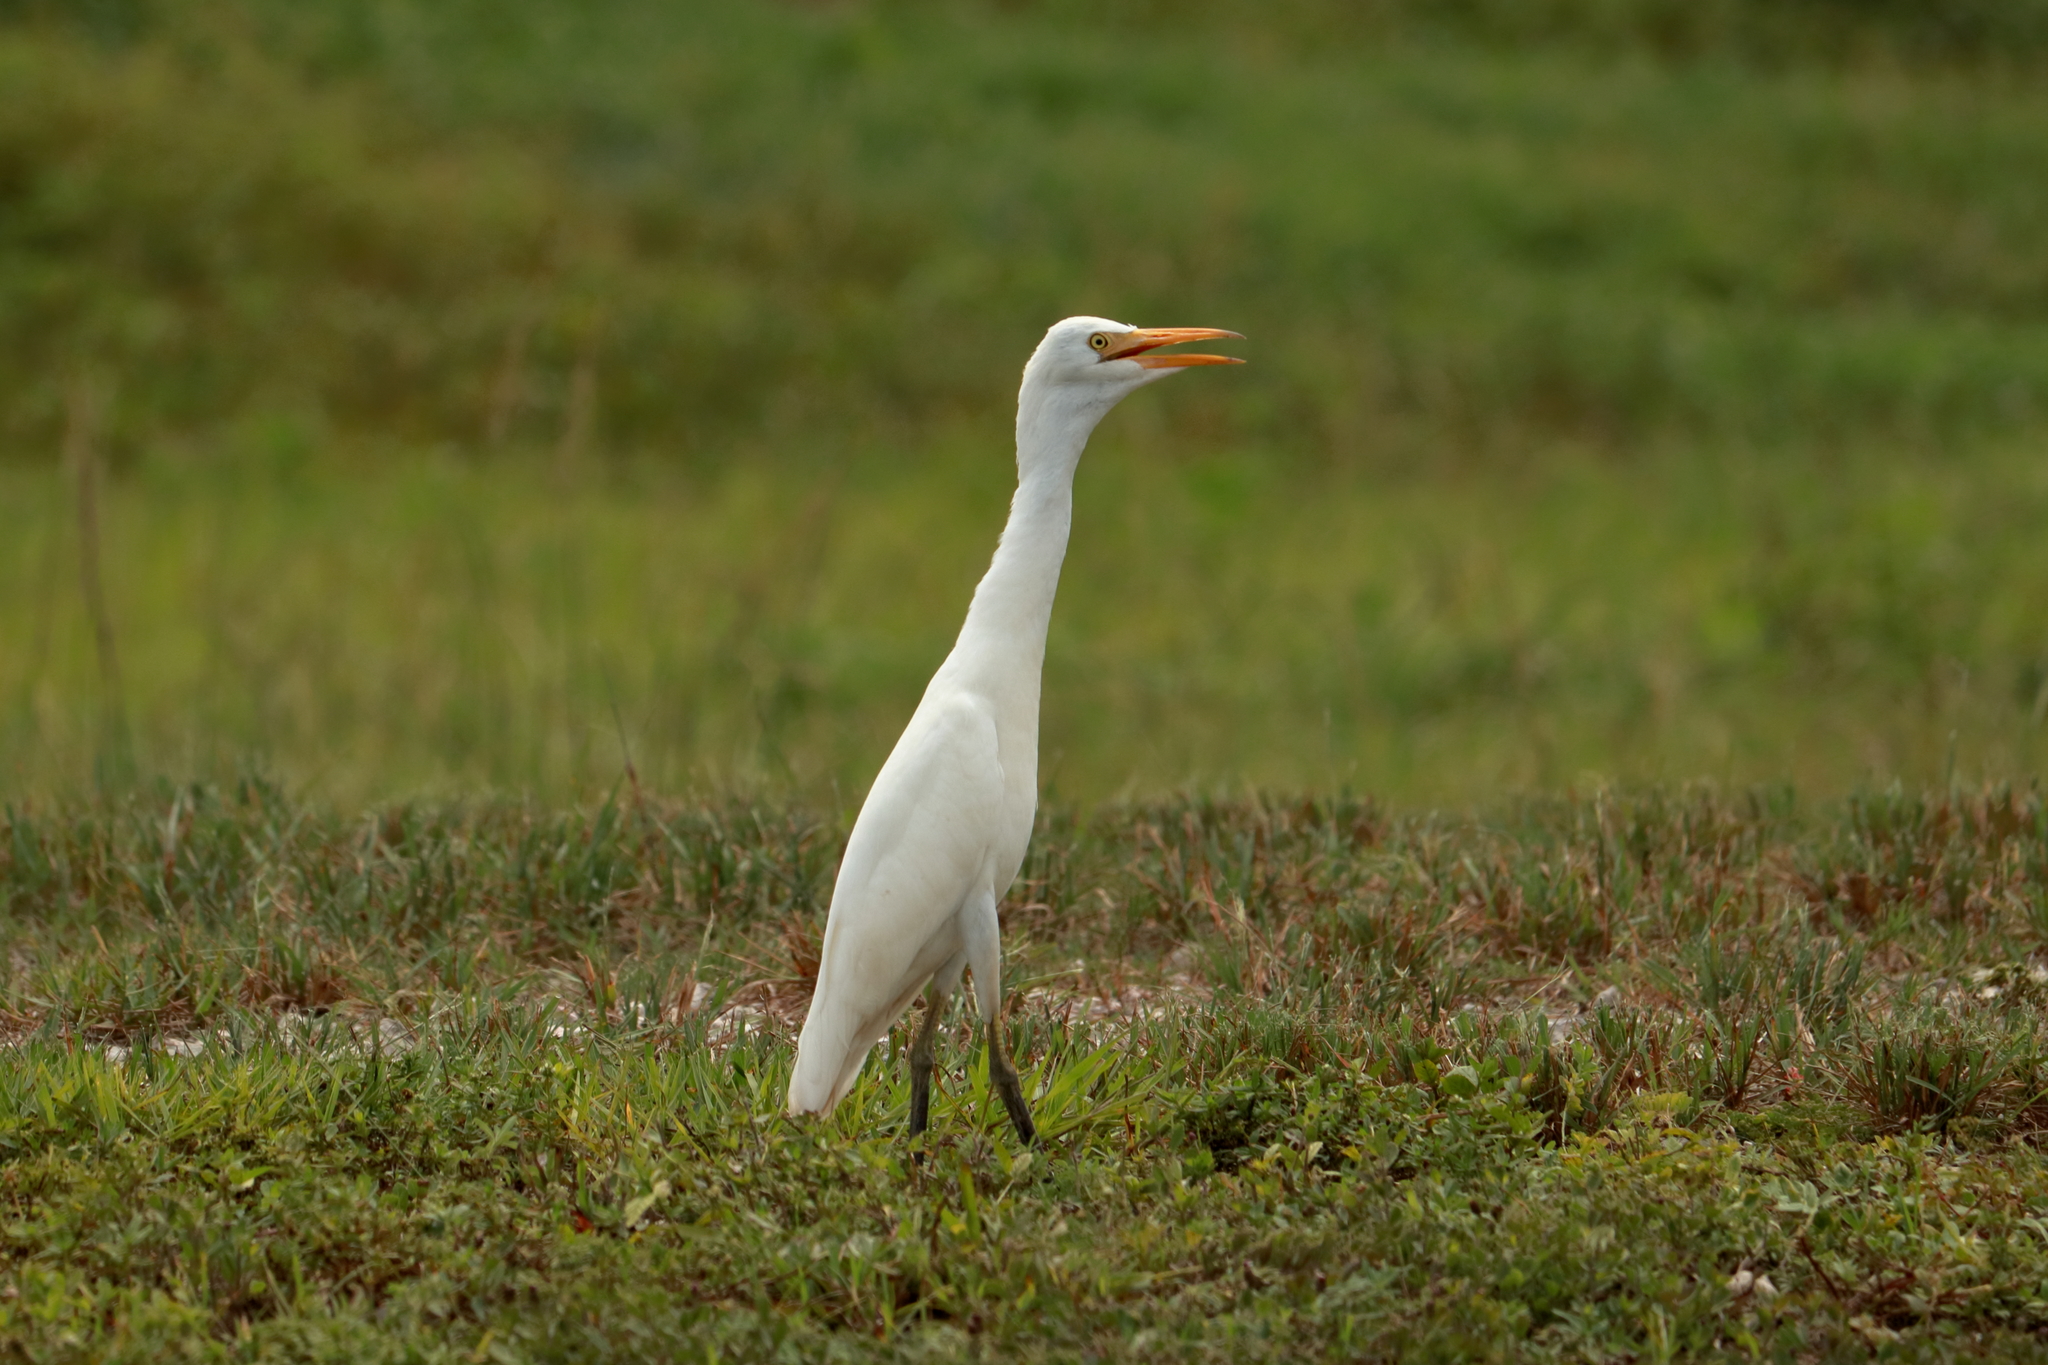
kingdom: Animalia
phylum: Chordata
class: Aves
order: Pelecaniformes
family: Ardeidae
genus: Bubulcus
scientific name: Bubulcus ibis
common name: Cattle egret
